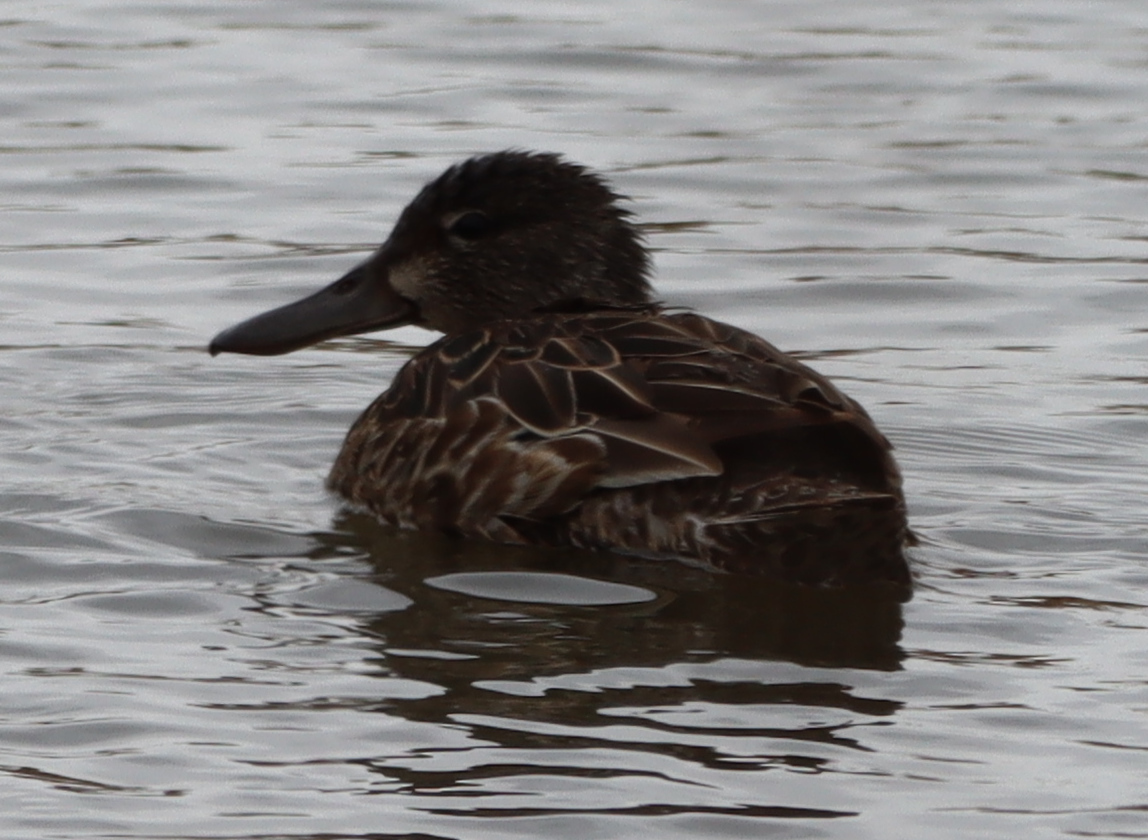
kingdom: Animalia
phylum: Chordata
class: Aves
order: Anseriformes
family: Anatidae
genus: Spatula
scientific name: Spatula clypeata
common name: Northern shoveler
